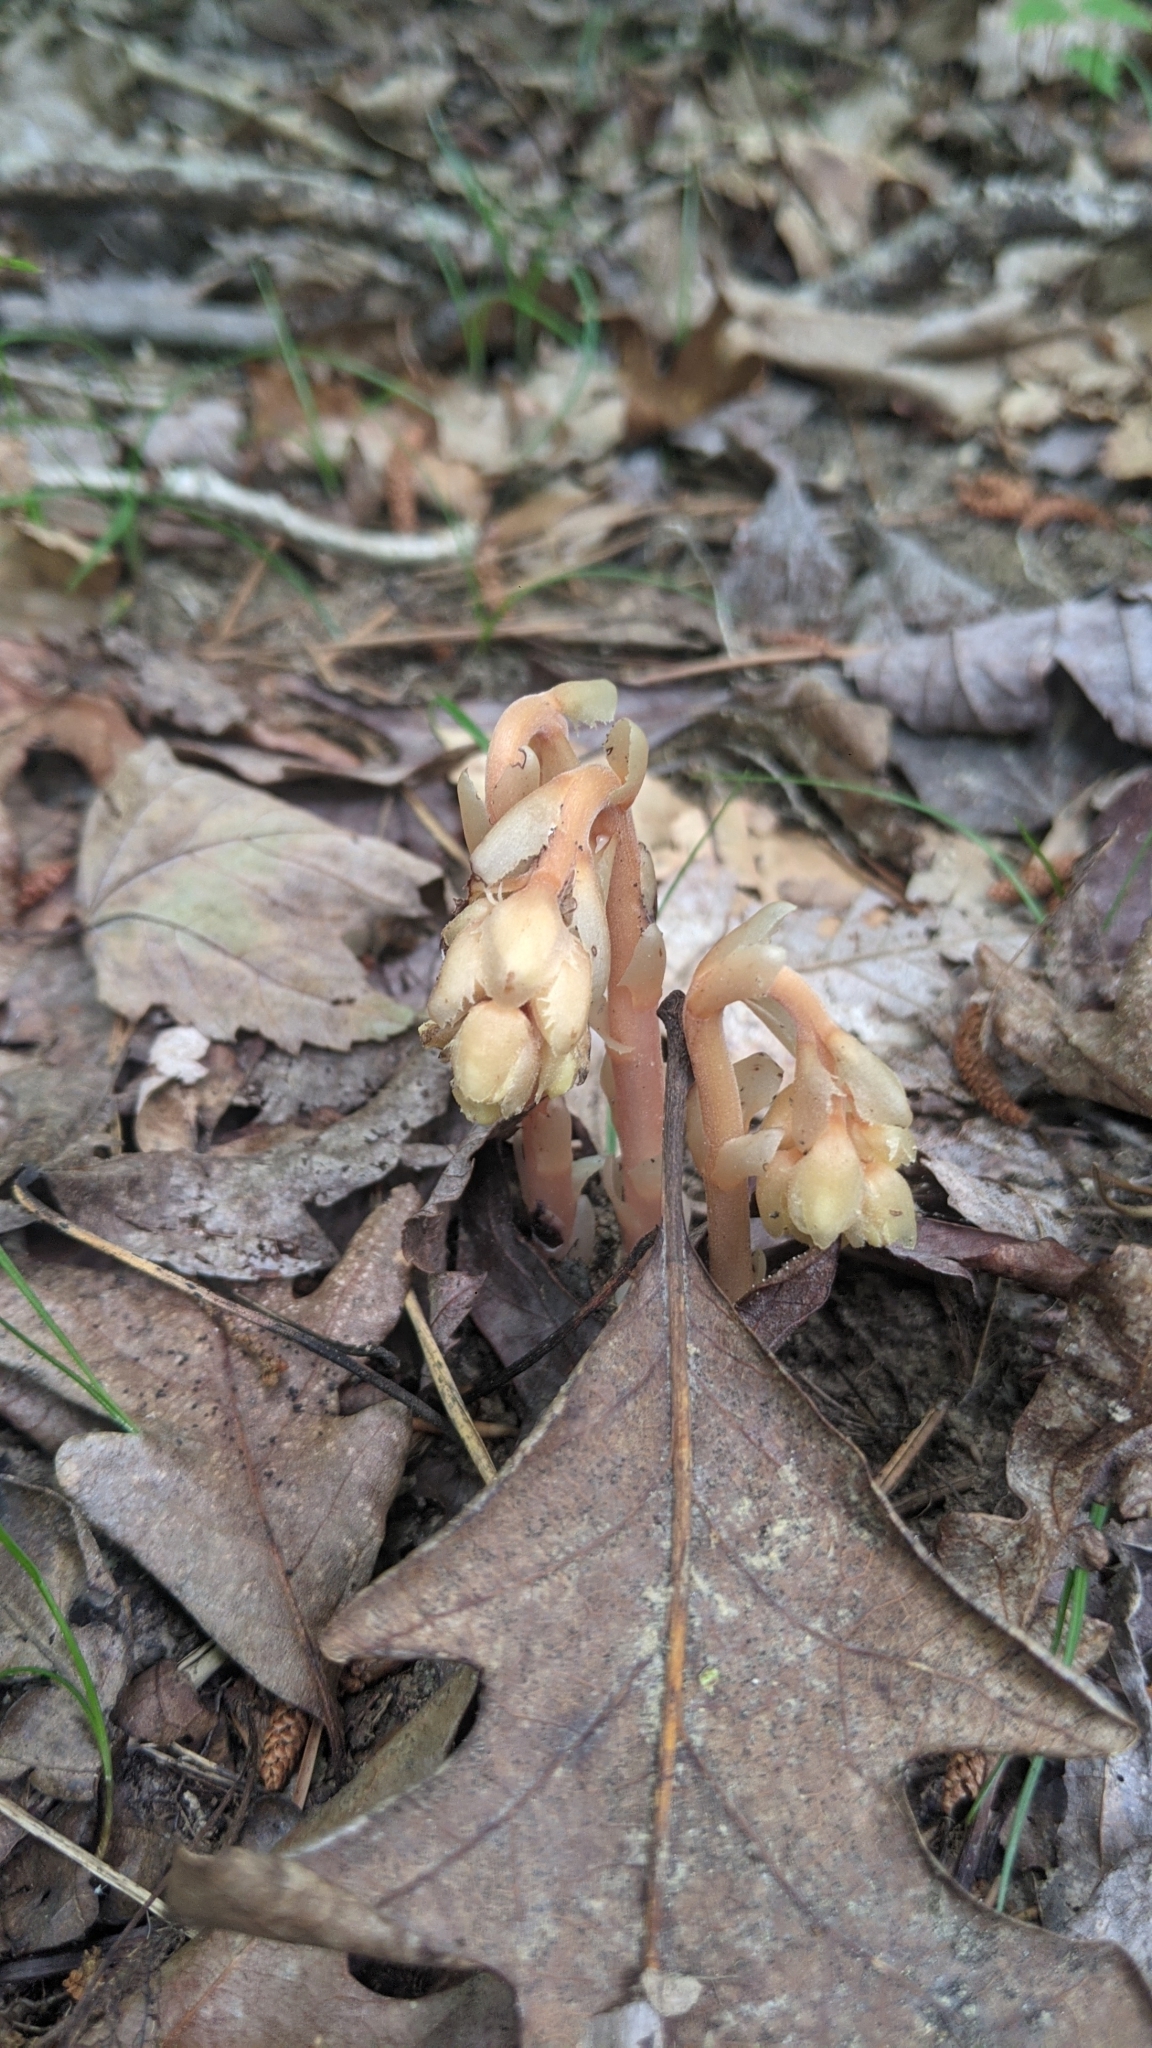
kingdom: Plantae
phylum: Tracheophyta
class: Magnoliopsida
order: Ericales
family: Ericaceae
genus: Hypopitys
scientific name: Hypopitys monotropa
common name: Yellow bird's-nest
